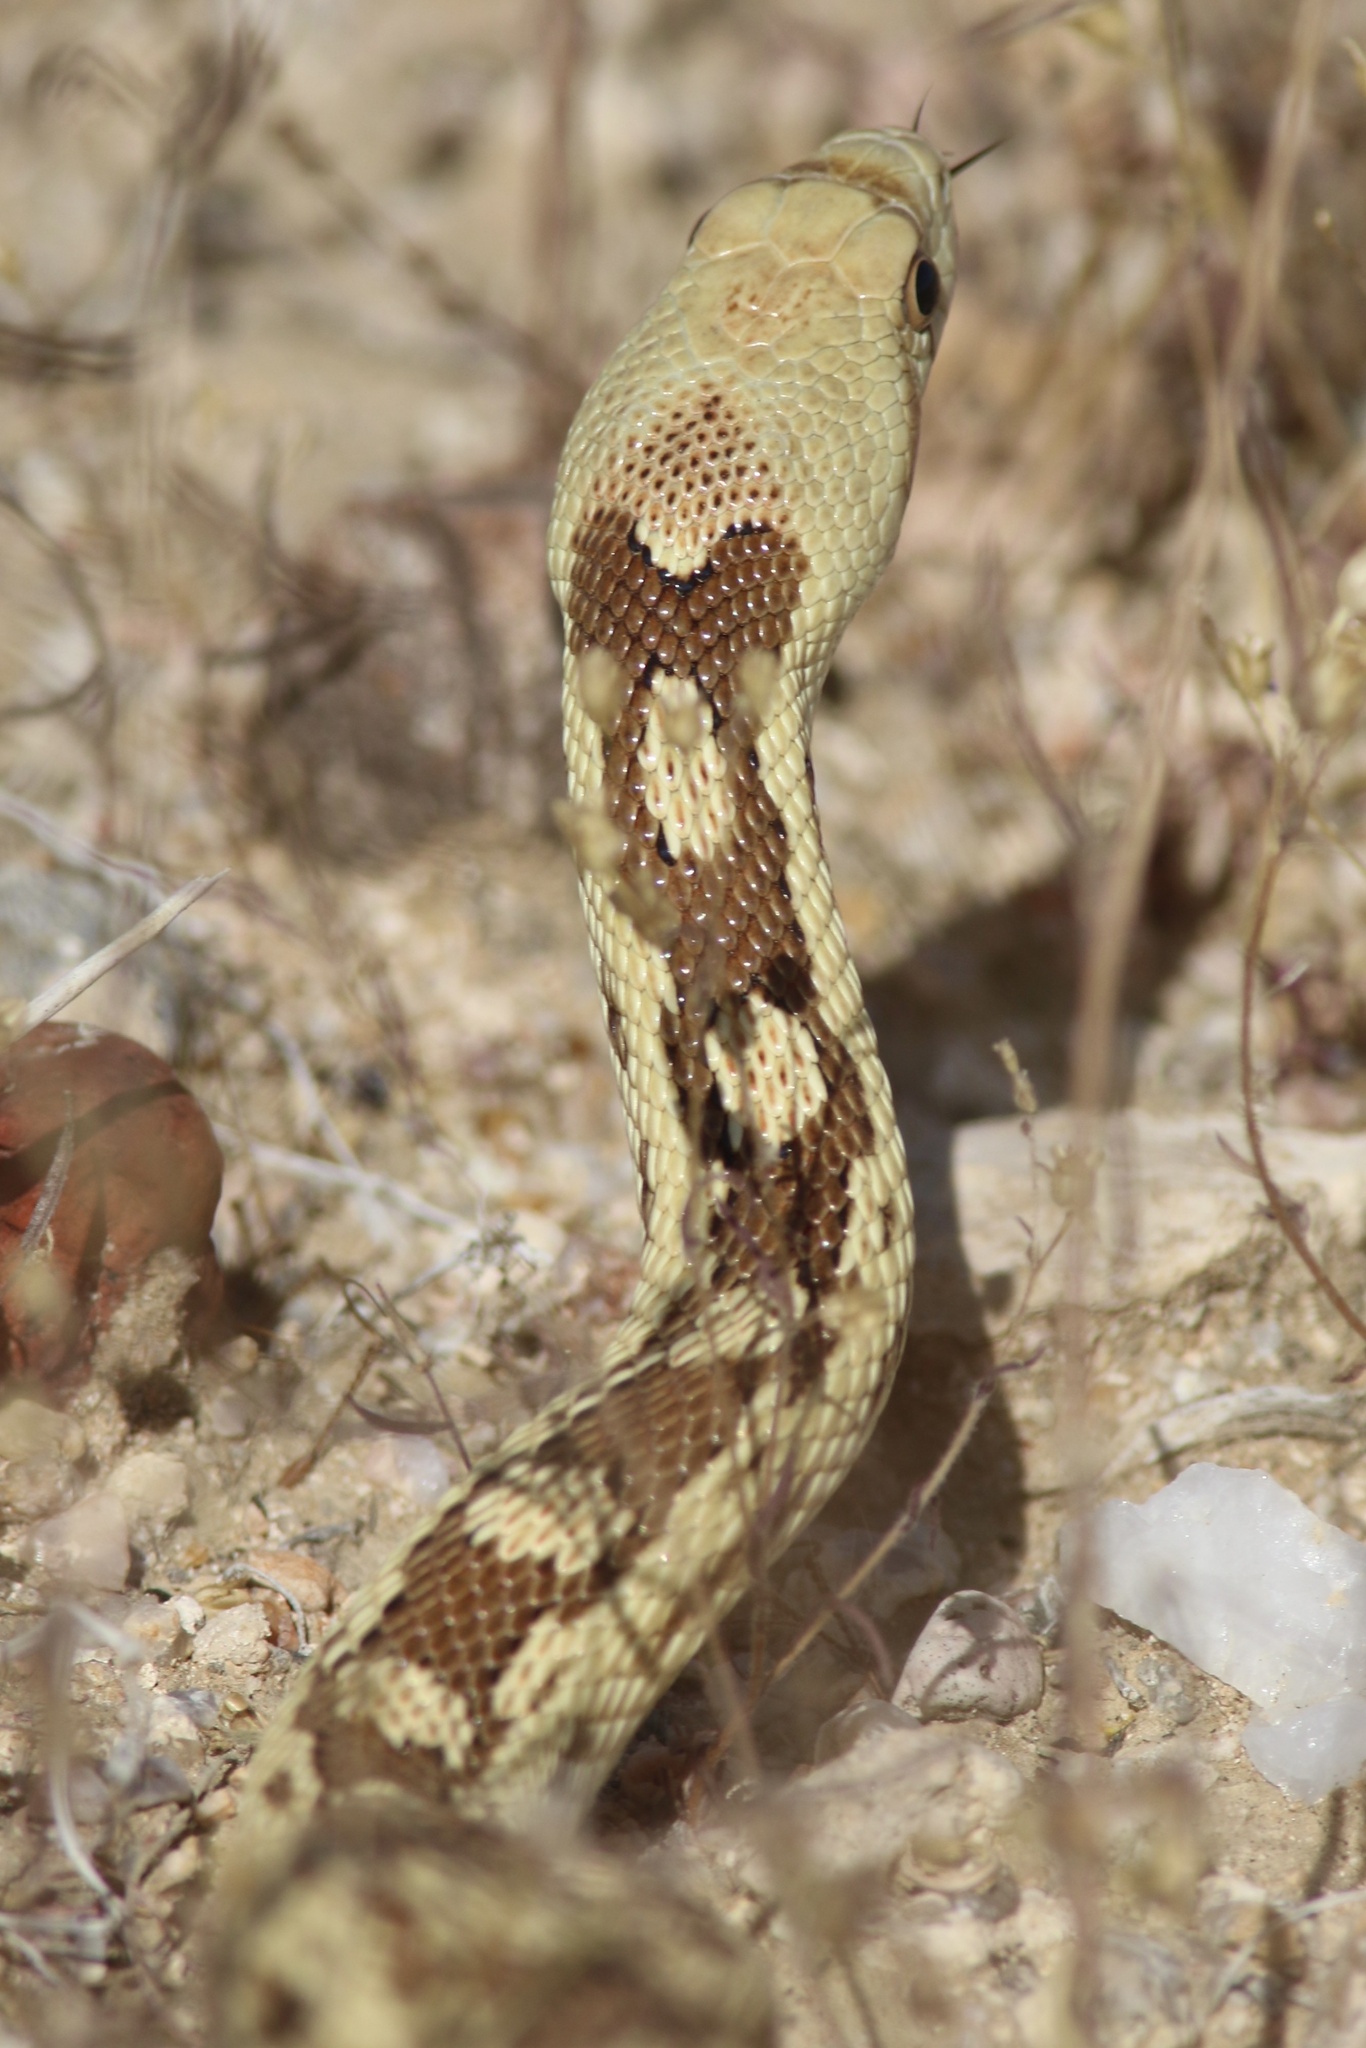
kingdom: Animalia
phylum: Chordata
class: Squamata
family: Colubridae
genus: Pituophis
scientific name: Pituophis catenifer
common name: Gopher snake
